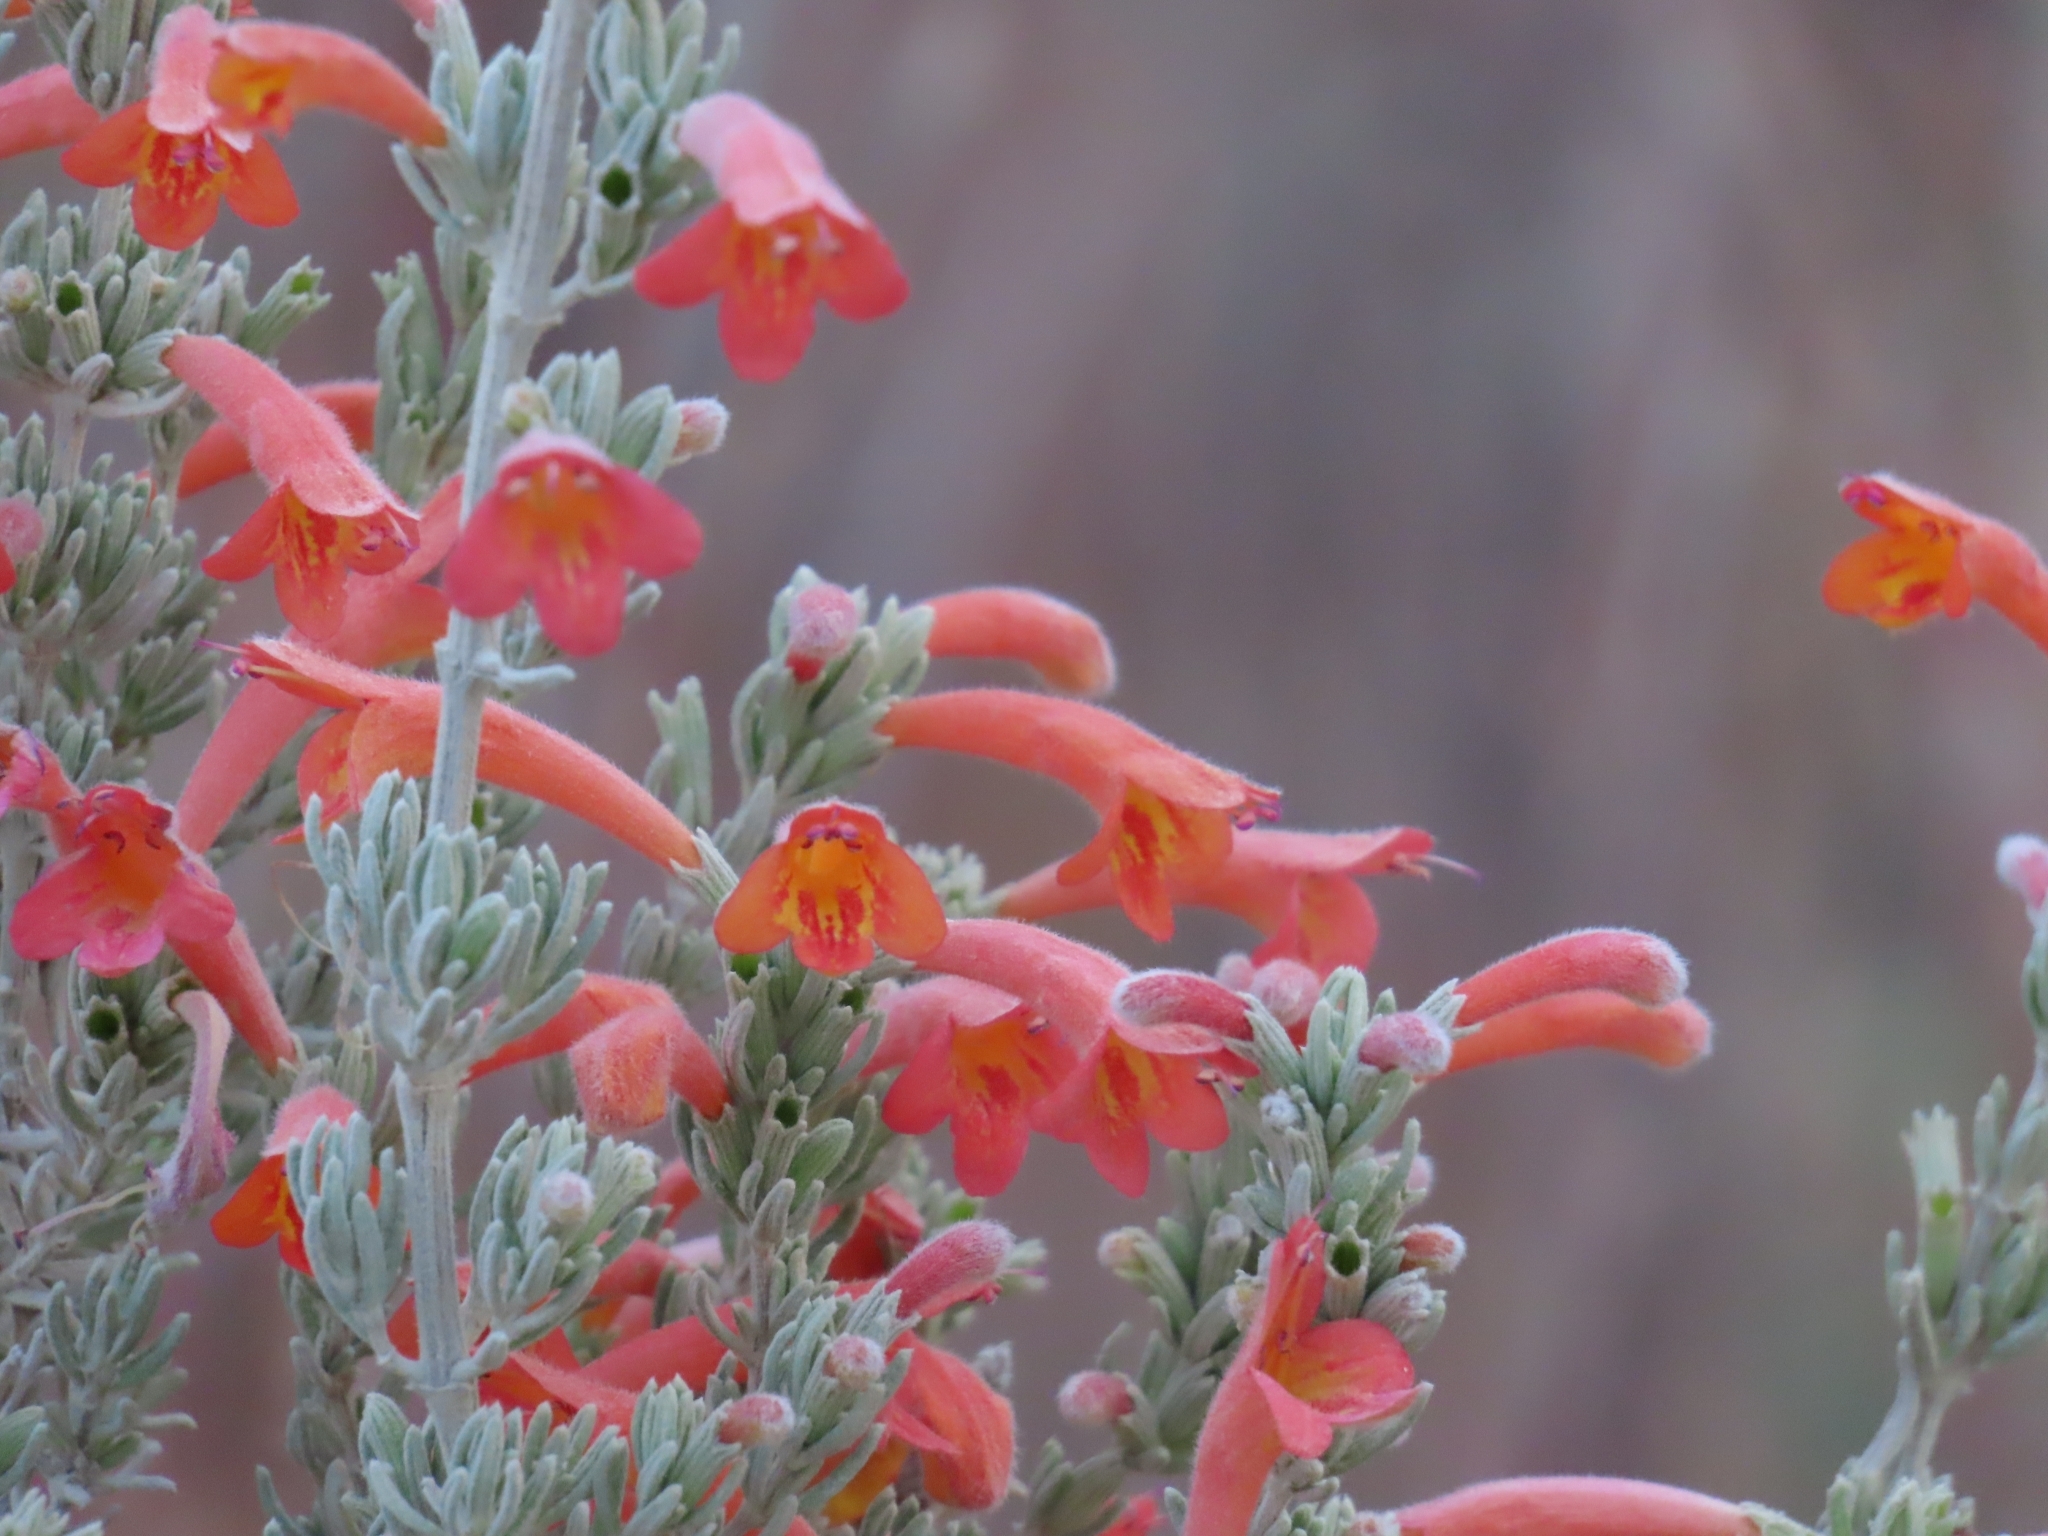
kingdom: Plantae
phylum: Tracheophyta
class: Magnoliopsida
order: Lamiales
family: Lamiaceae
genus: Clinopodium
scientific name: Clinopodium sericeum
